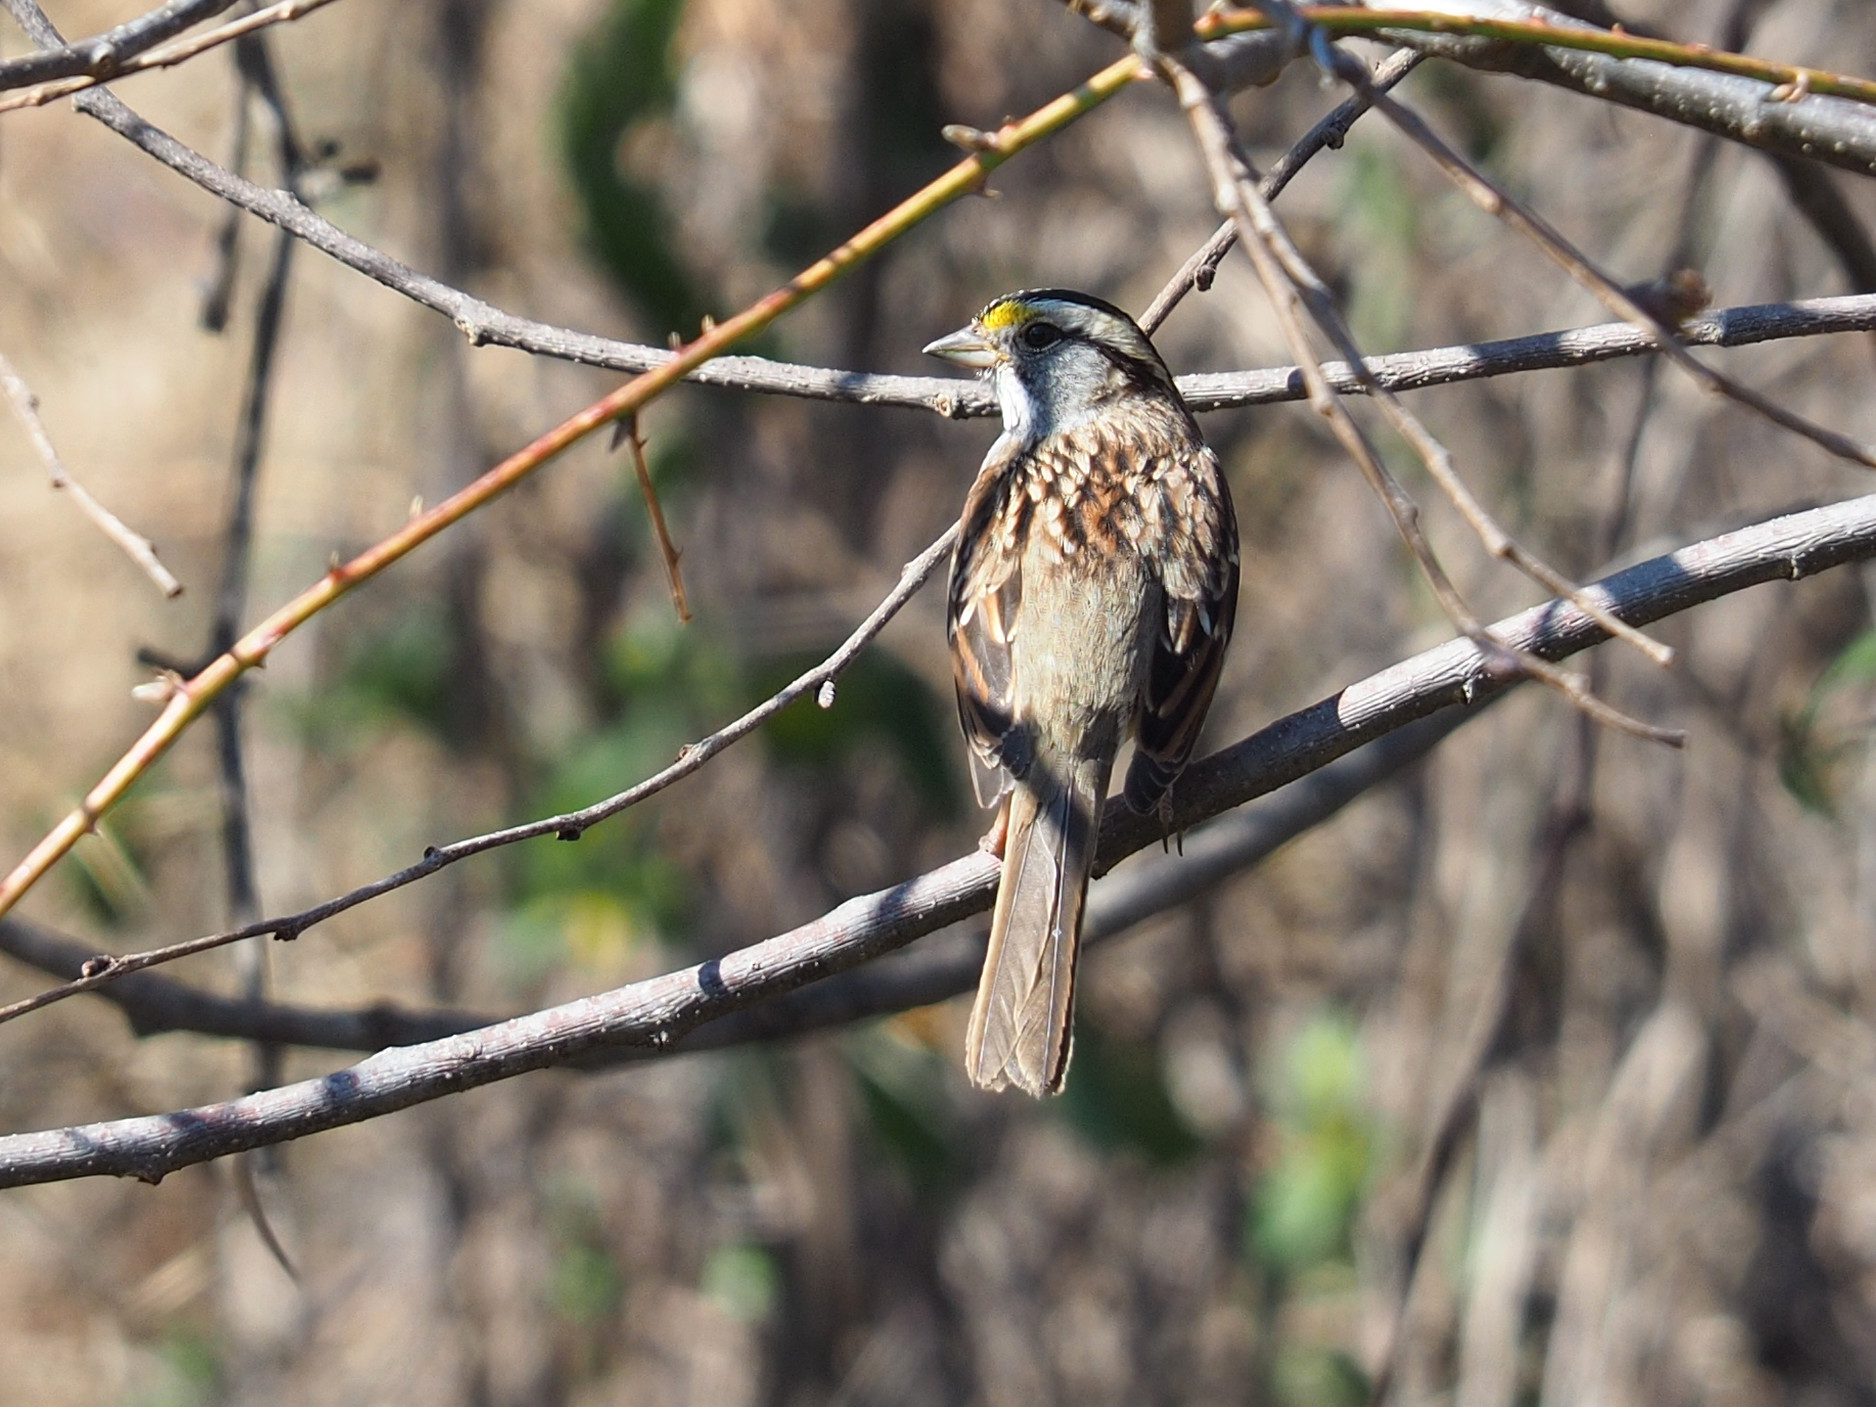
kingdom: Animalia
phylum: Chordata
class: Aves
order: Passeriformes
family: Passerellidae
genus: Zonotrichia
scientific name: Zonotrichia albicollis
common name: White-throated sparrow
